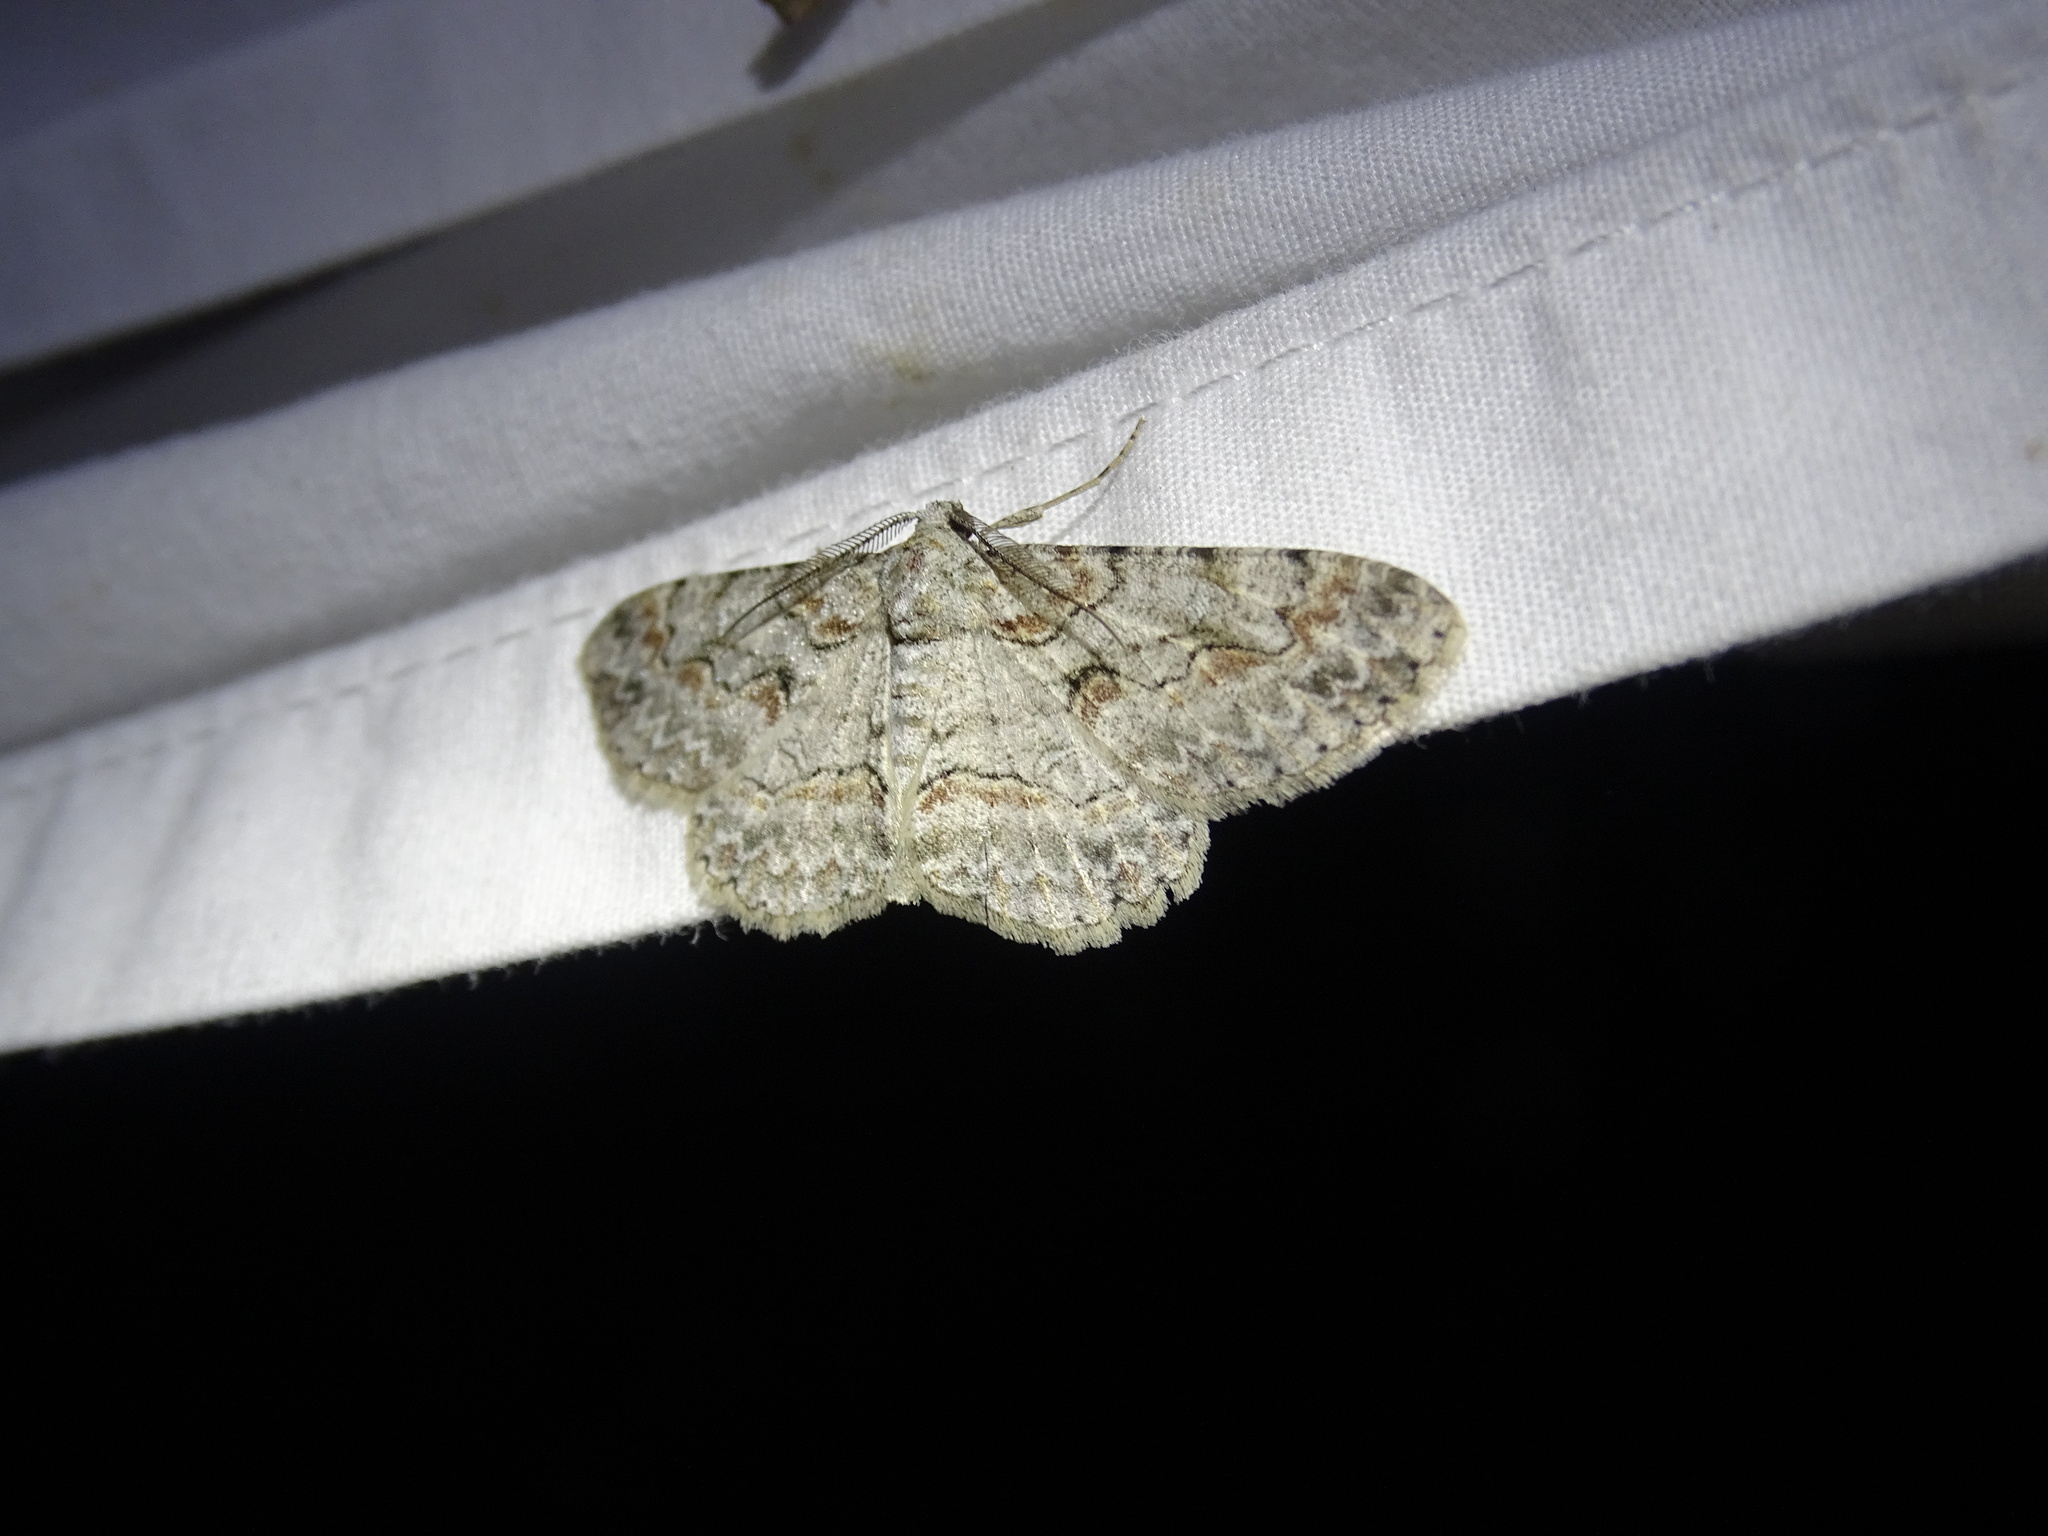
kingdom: Animalia
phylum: Arthropoda
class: Insecta
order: Lepidoptera
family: Geometridae
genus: Iridopsis
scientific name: Iridopsis defectaria
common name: Brown-shaded gray
